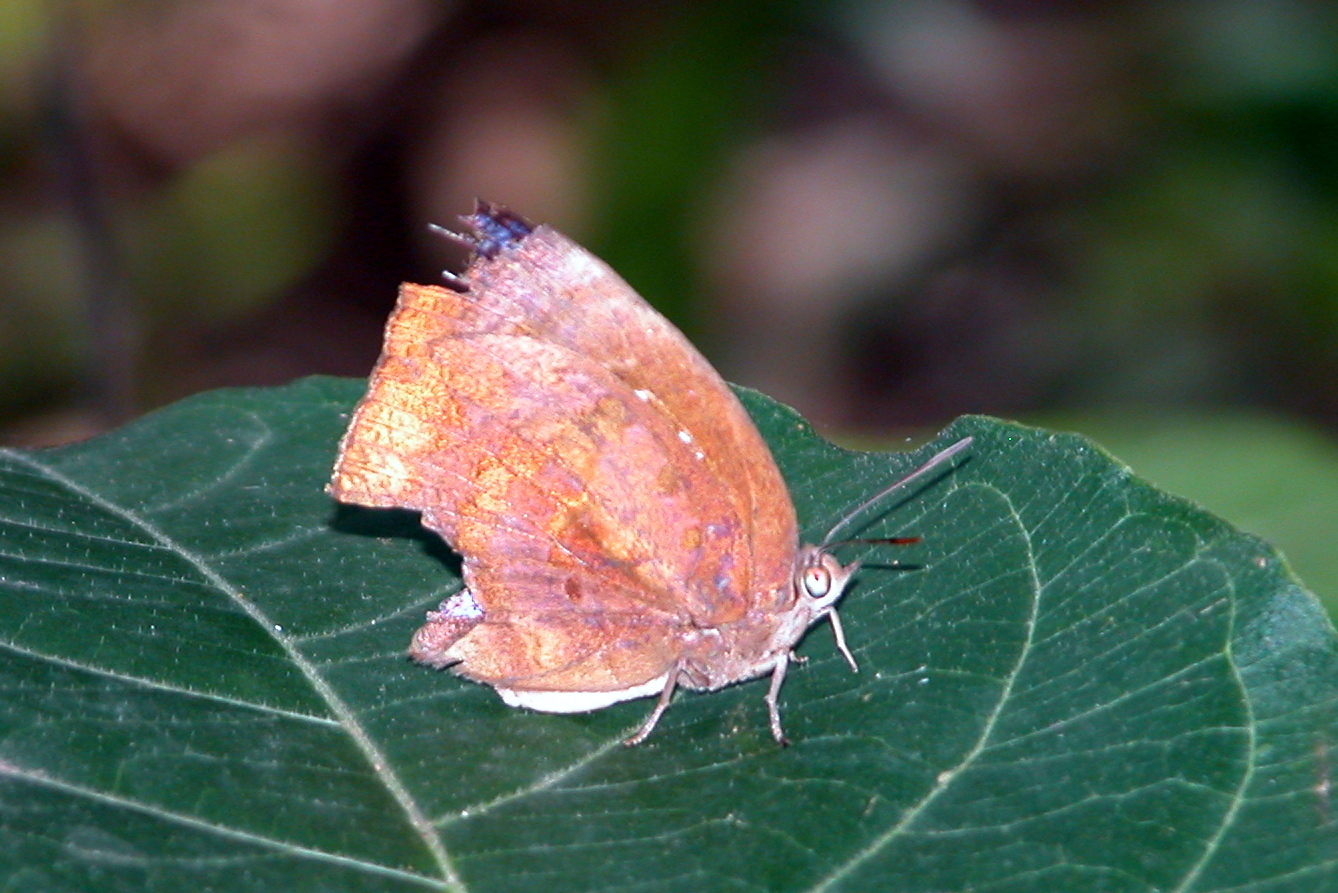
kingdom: Animalia
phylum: Arthropoda
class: Insecta
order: Lepidoptera
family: Lycaenidae
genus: Arhopala
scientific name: Arhopala centaurus
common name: Dull oak-blue
